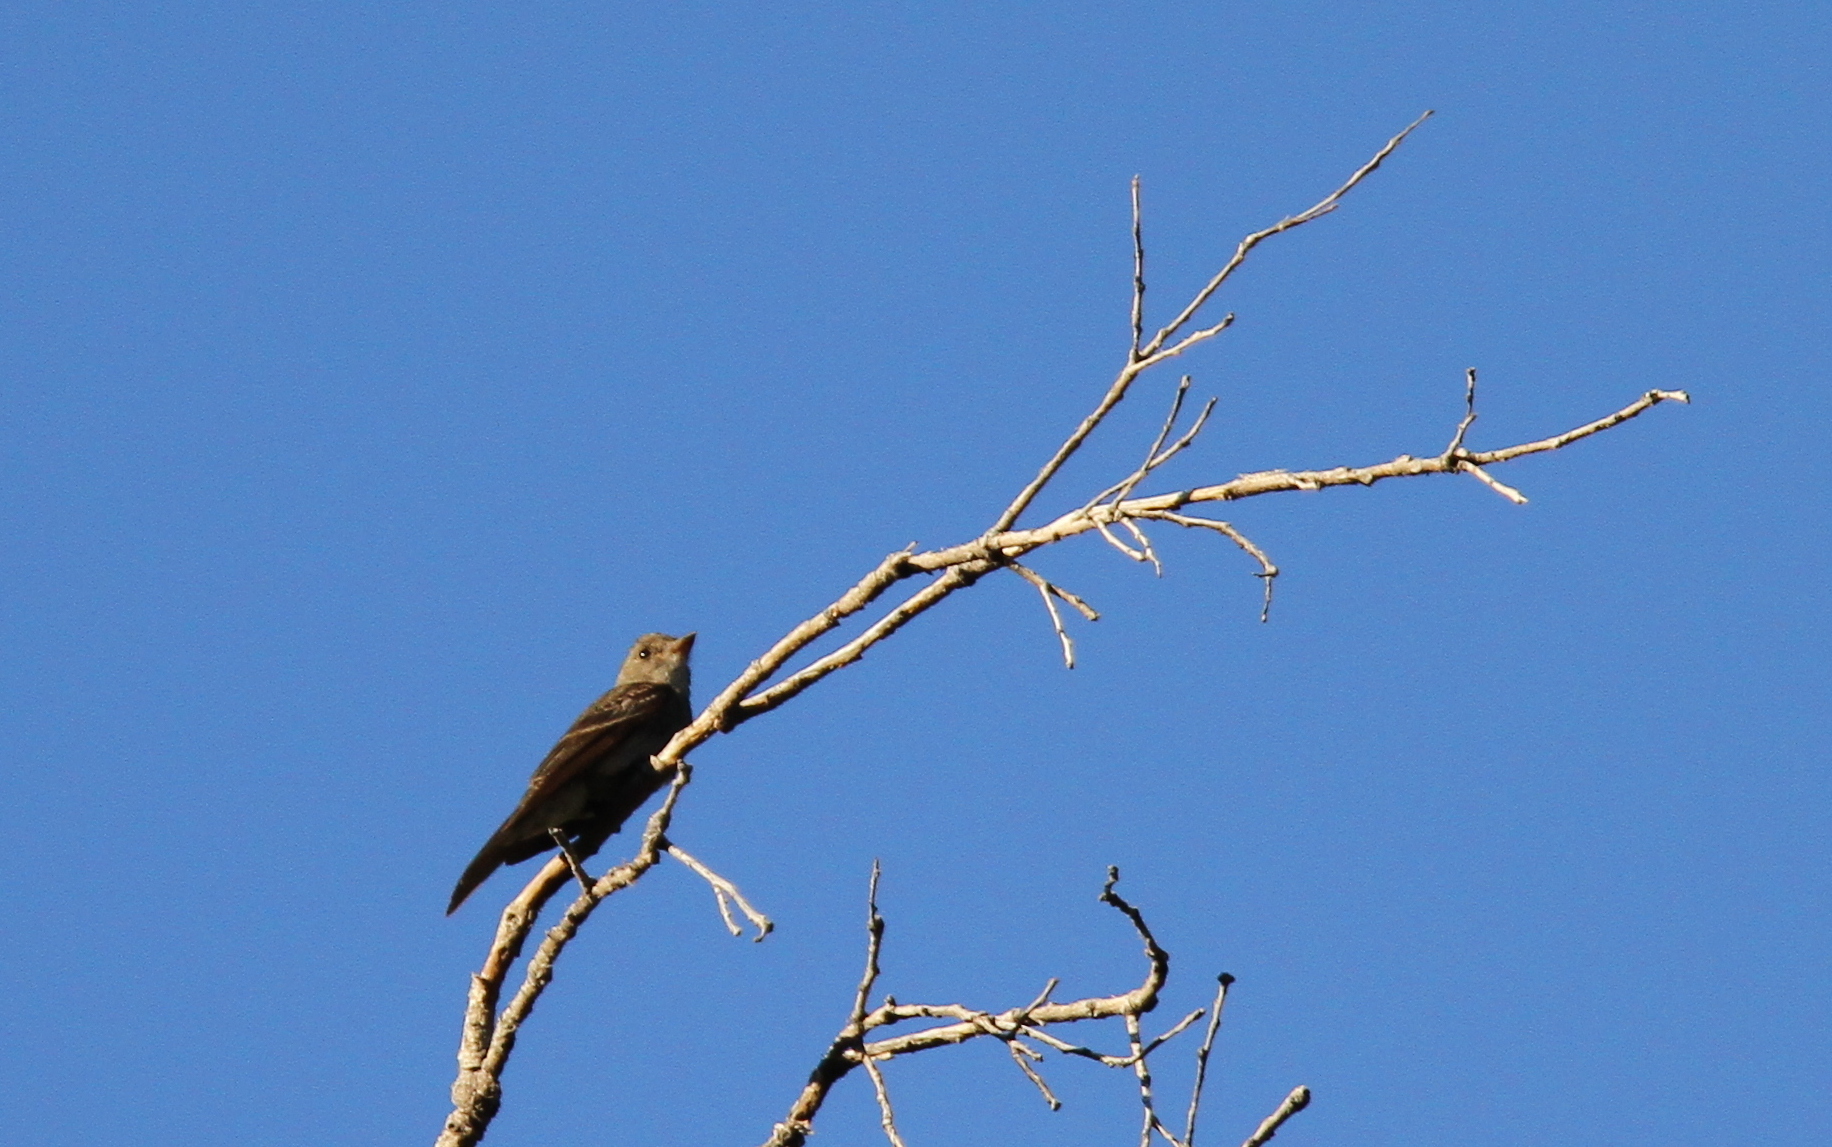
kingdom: Animalia
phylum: Chordata
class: Aves
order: Passeriformes
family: Tyrannidae
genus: Contopus
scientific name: Contopus sordidulus
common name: Western wood-pewee
